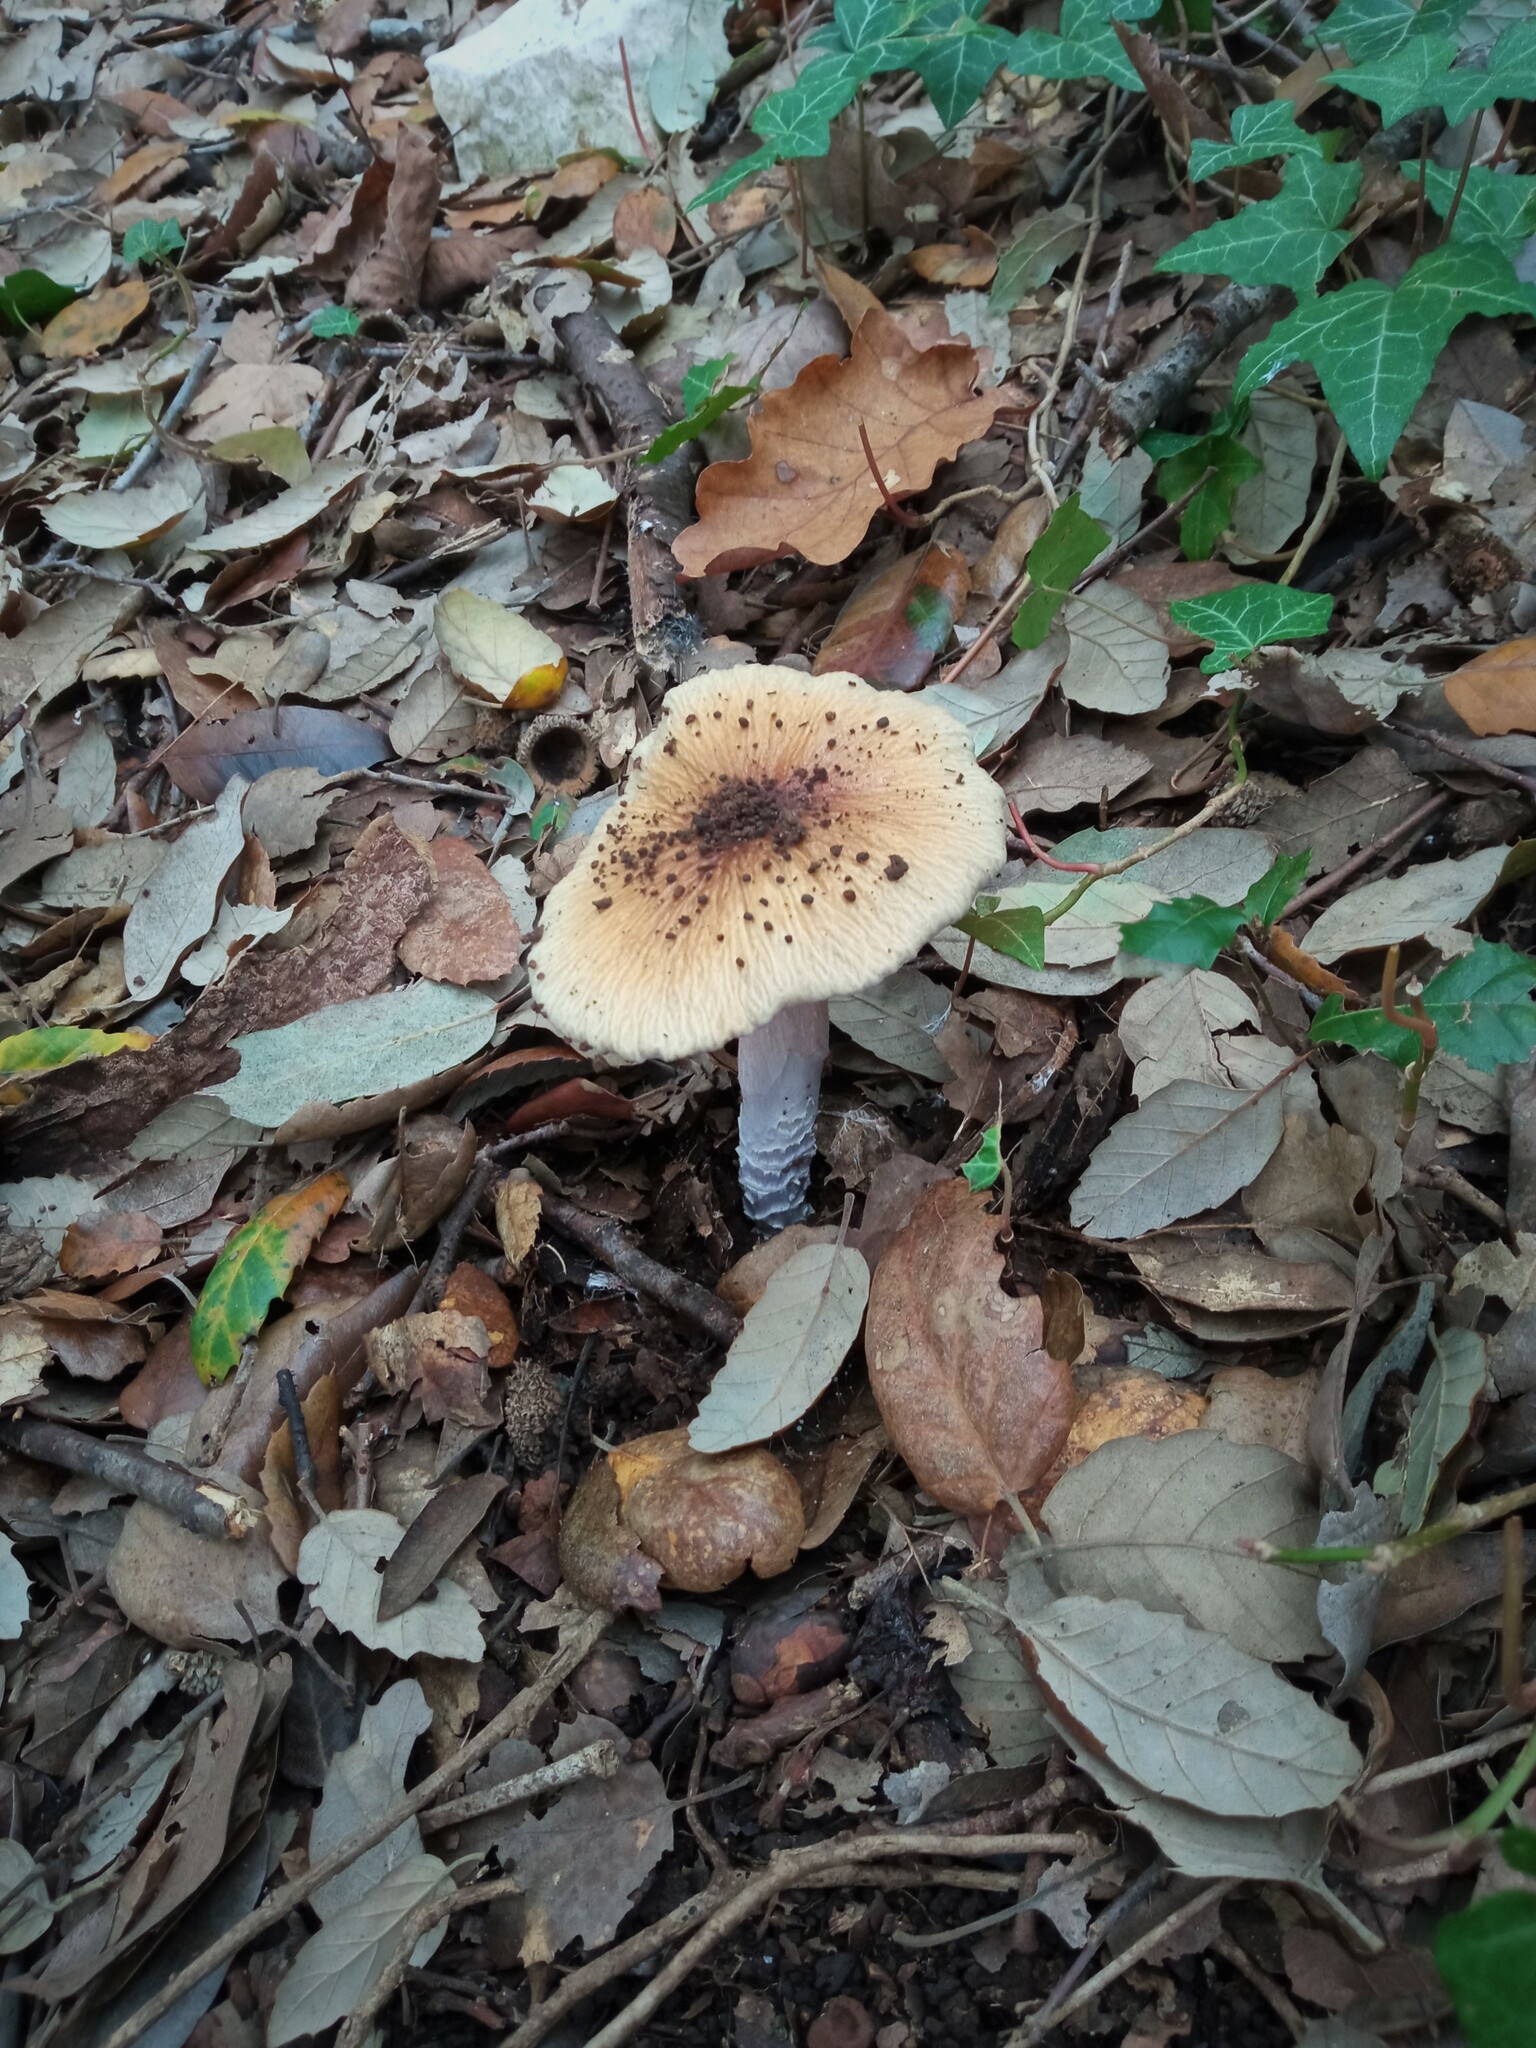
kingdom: Fungi
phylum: Basidiomycota
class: Agaricomycetes
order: Agaricales
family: Cortinariaceae
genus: Cortinarius
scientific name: Cortinarius livido-ochraceus
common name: Wrinkled webcap
